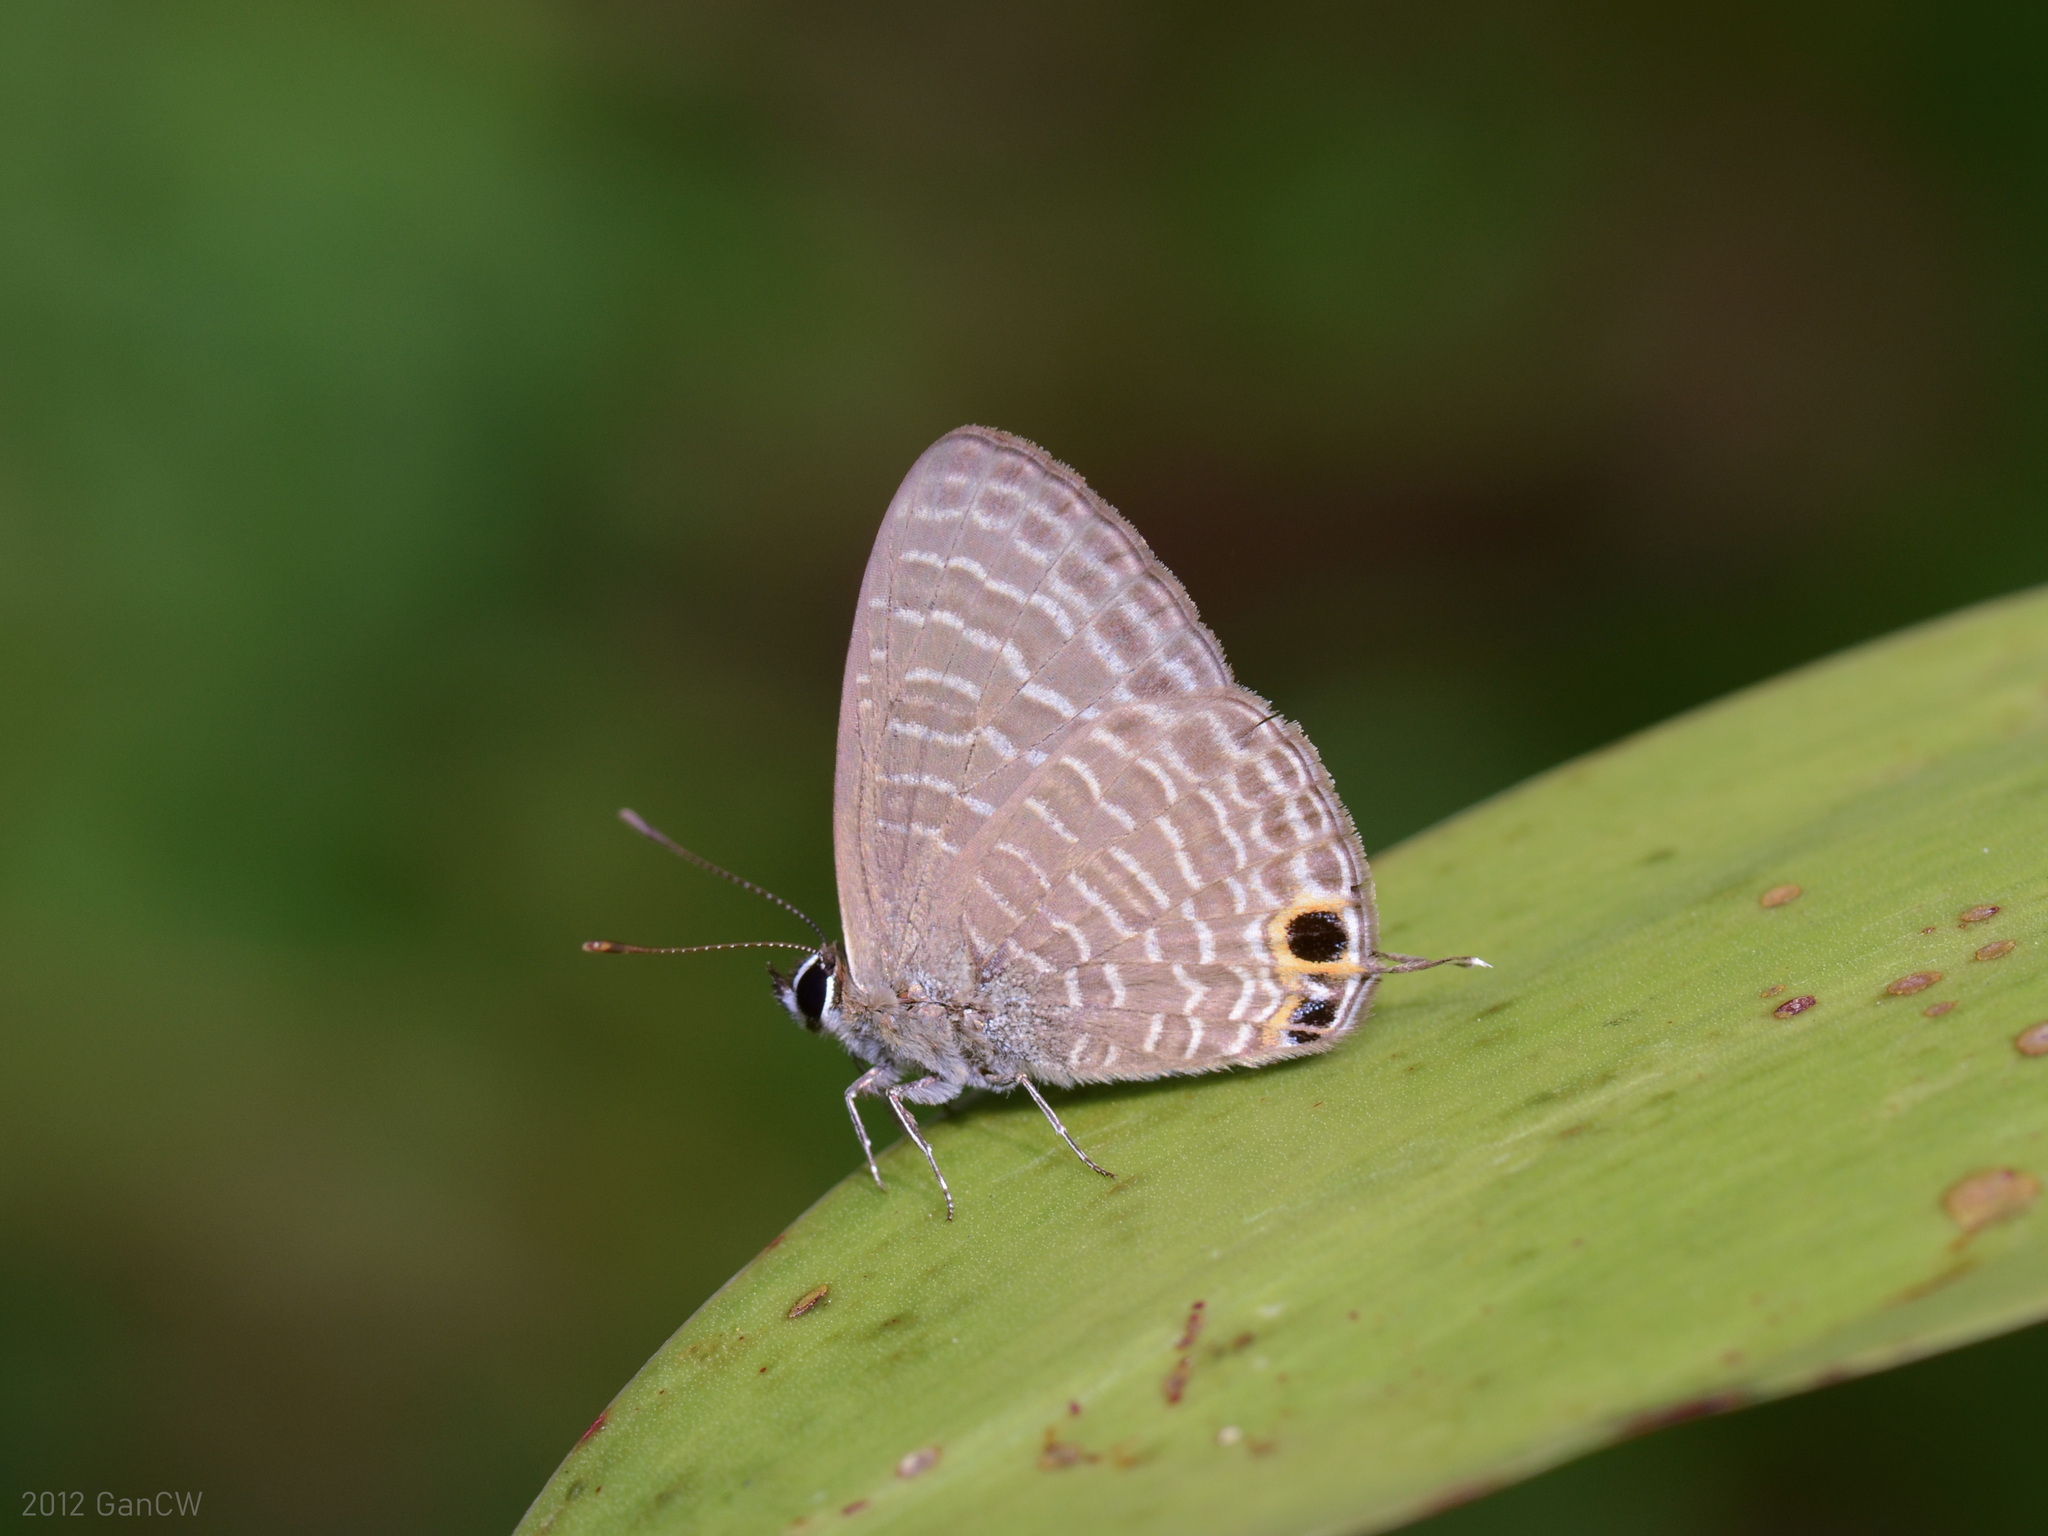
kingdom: Animalia
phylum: Arthropoda
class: Insecta
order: Lepidoptera
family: Lycaenidae
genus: Nacaduba
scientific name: Nacaduba kurava
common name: Transparent 6-line blue
